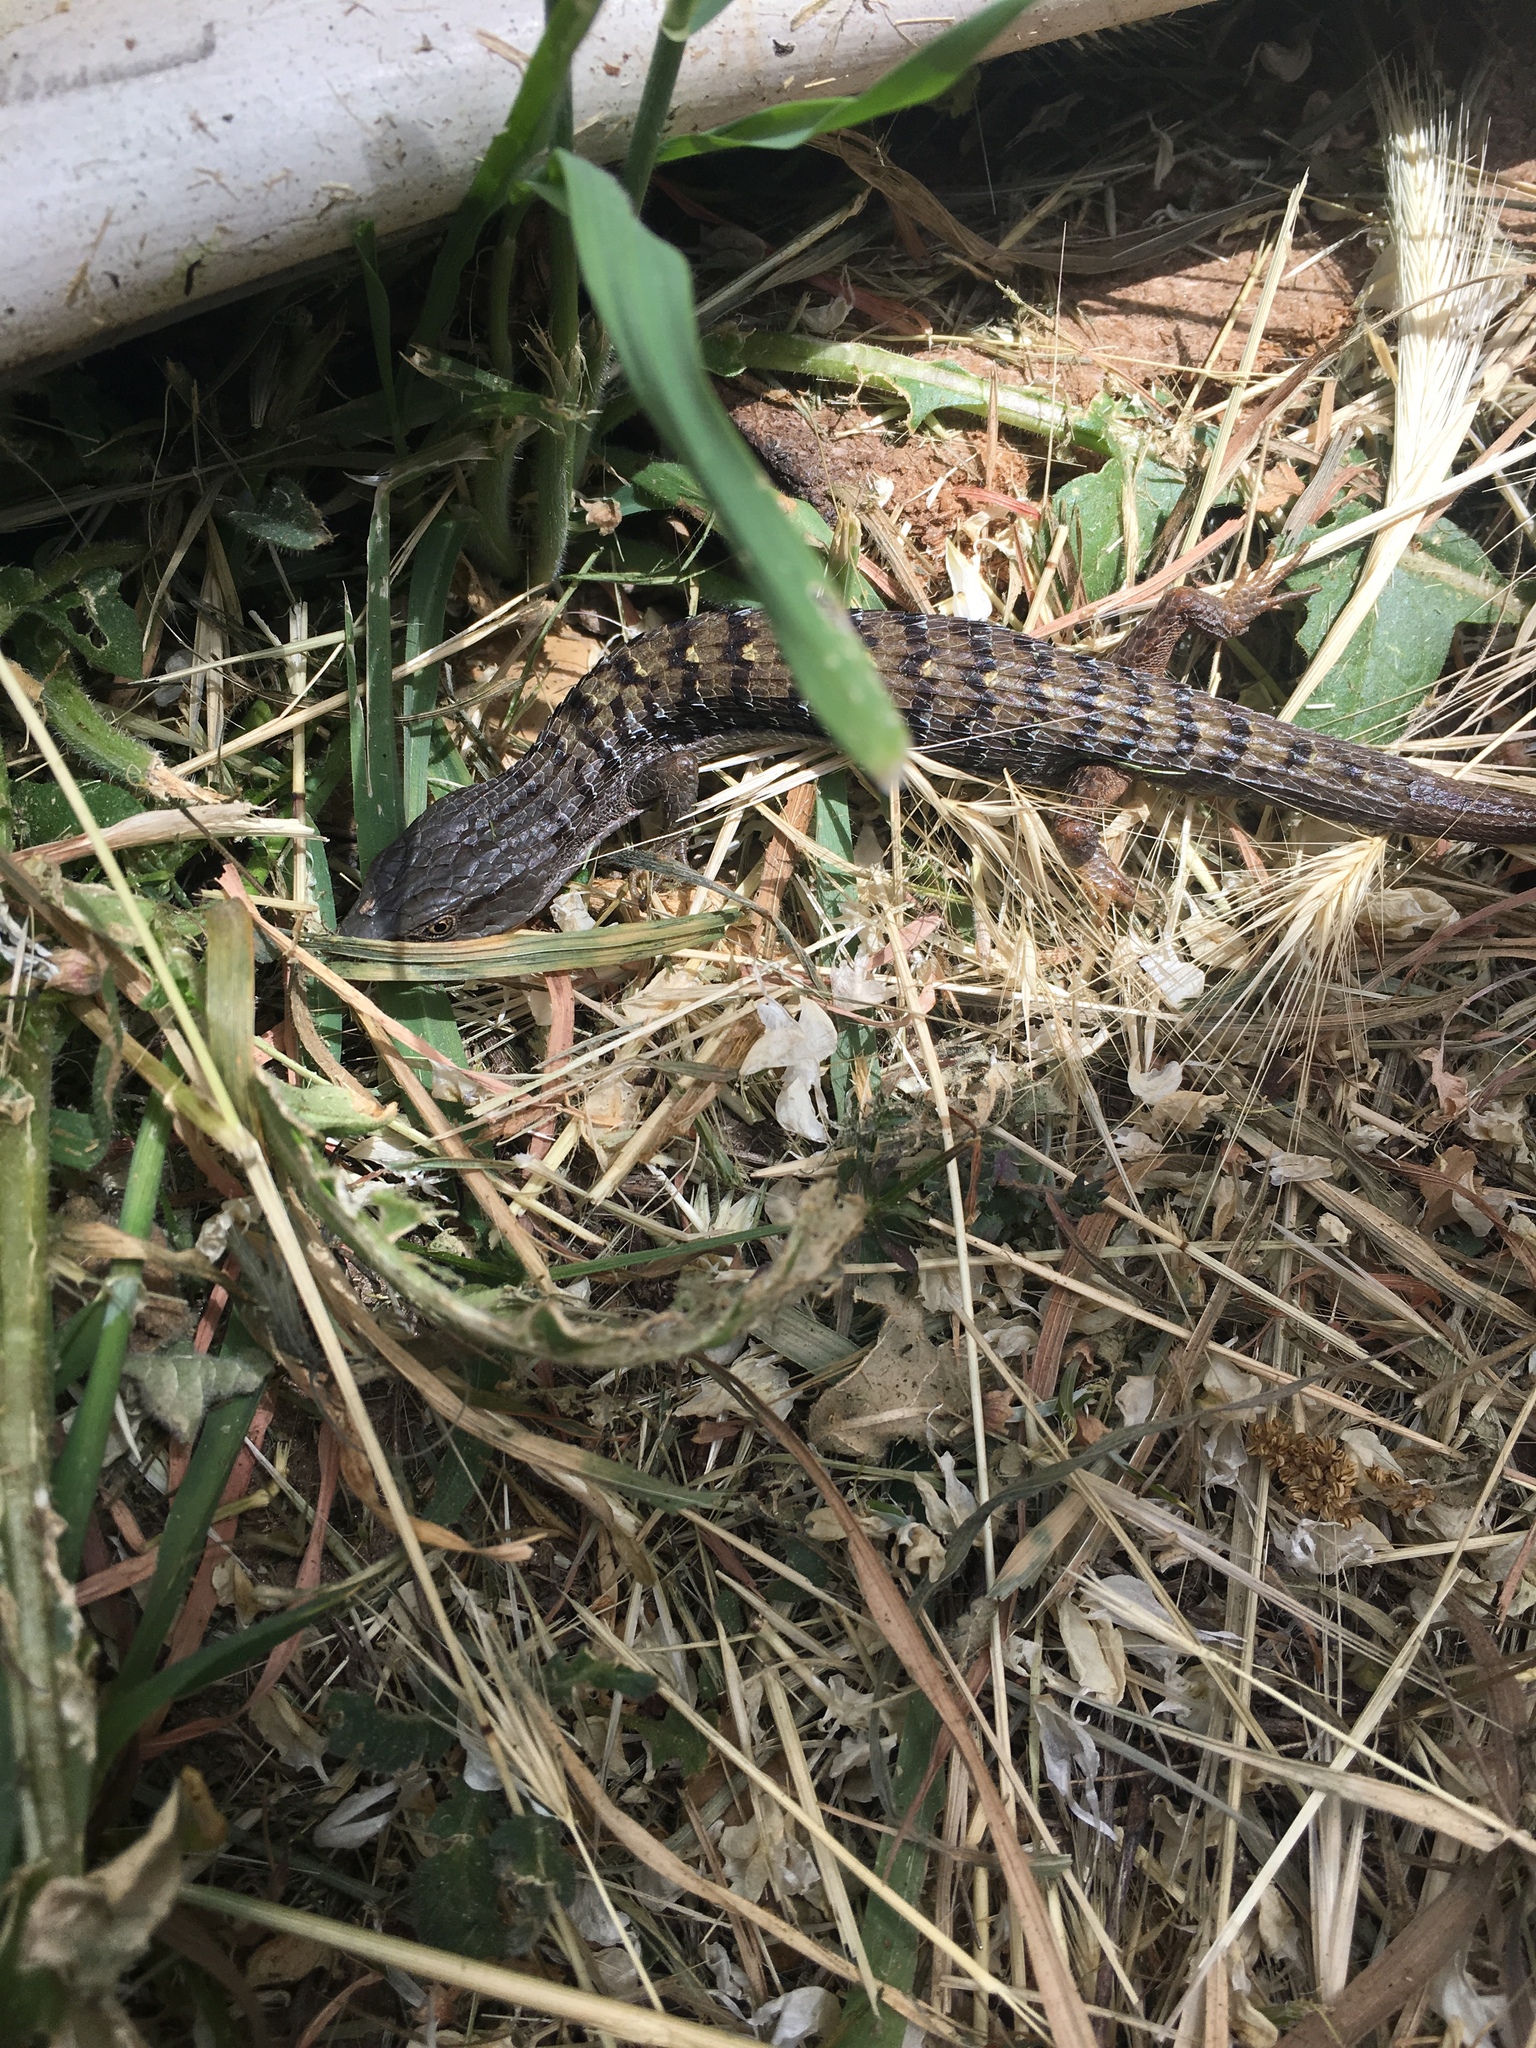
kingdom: Animalia
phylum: Chordata
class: Squamata
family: Anguidae
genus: Elgaria
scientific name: Elgaria multicarinata
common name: Southern alligator lizard
